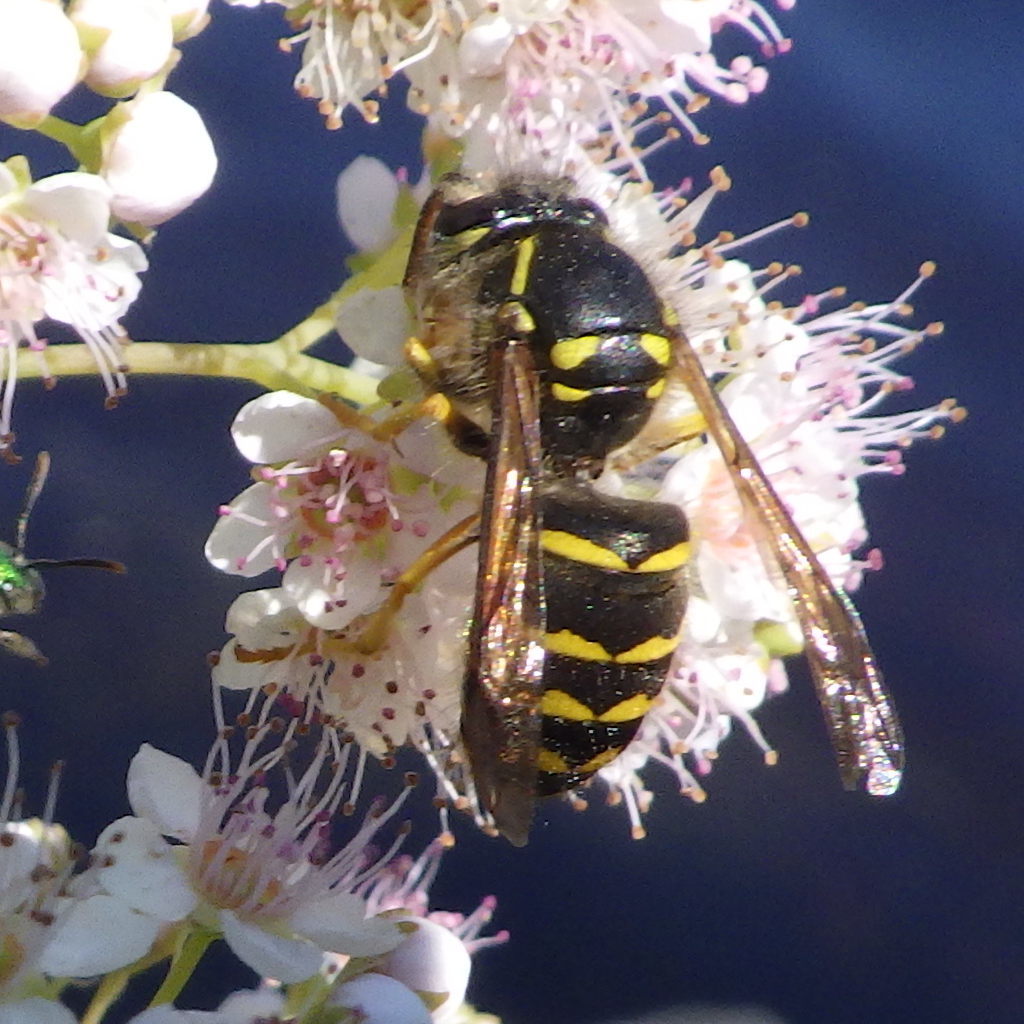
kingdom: Animalia
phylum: Arthropoda
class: Insecta
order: Hymenoptera
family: Vespidae
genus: Dolichovespula
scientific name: Dolichovespula arenaria
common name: Aerial yellowjacket
